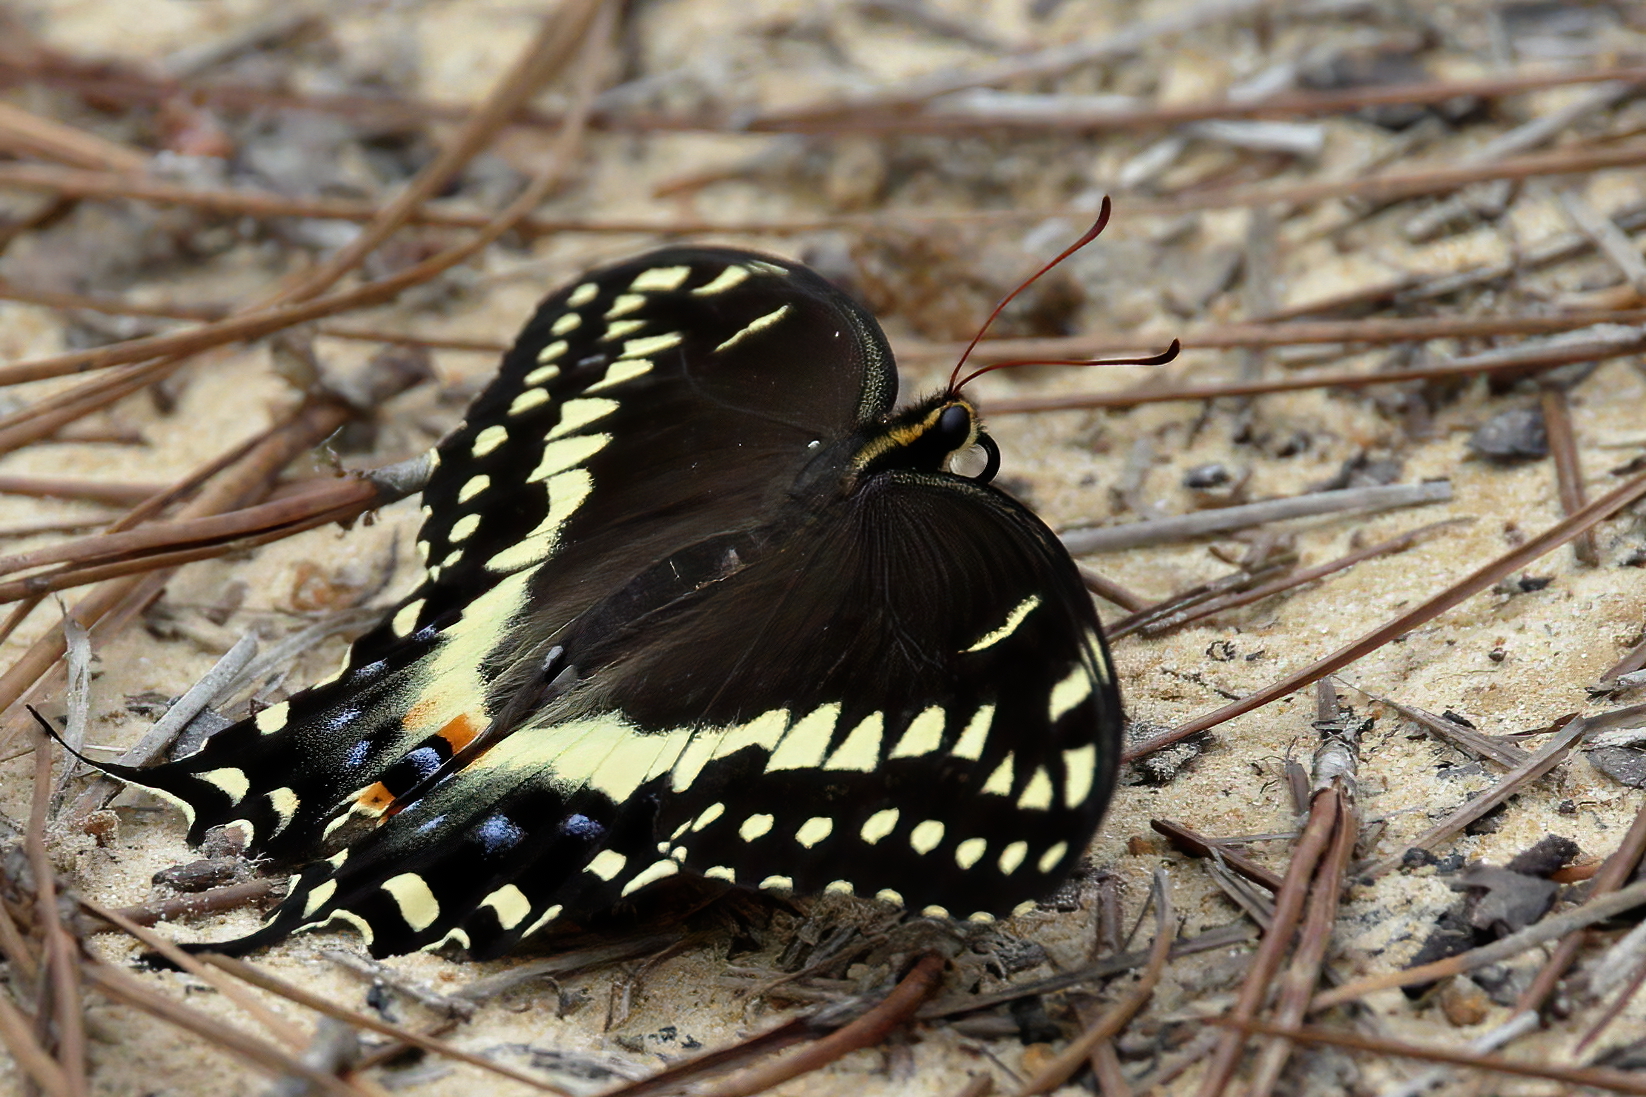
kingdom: Animalia
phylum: Arthropoda
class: Insecta
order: Lepidoptera
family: Papilionidae
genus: Papilio
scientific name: Papilio palamedes
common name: Palamedes swallowtail
